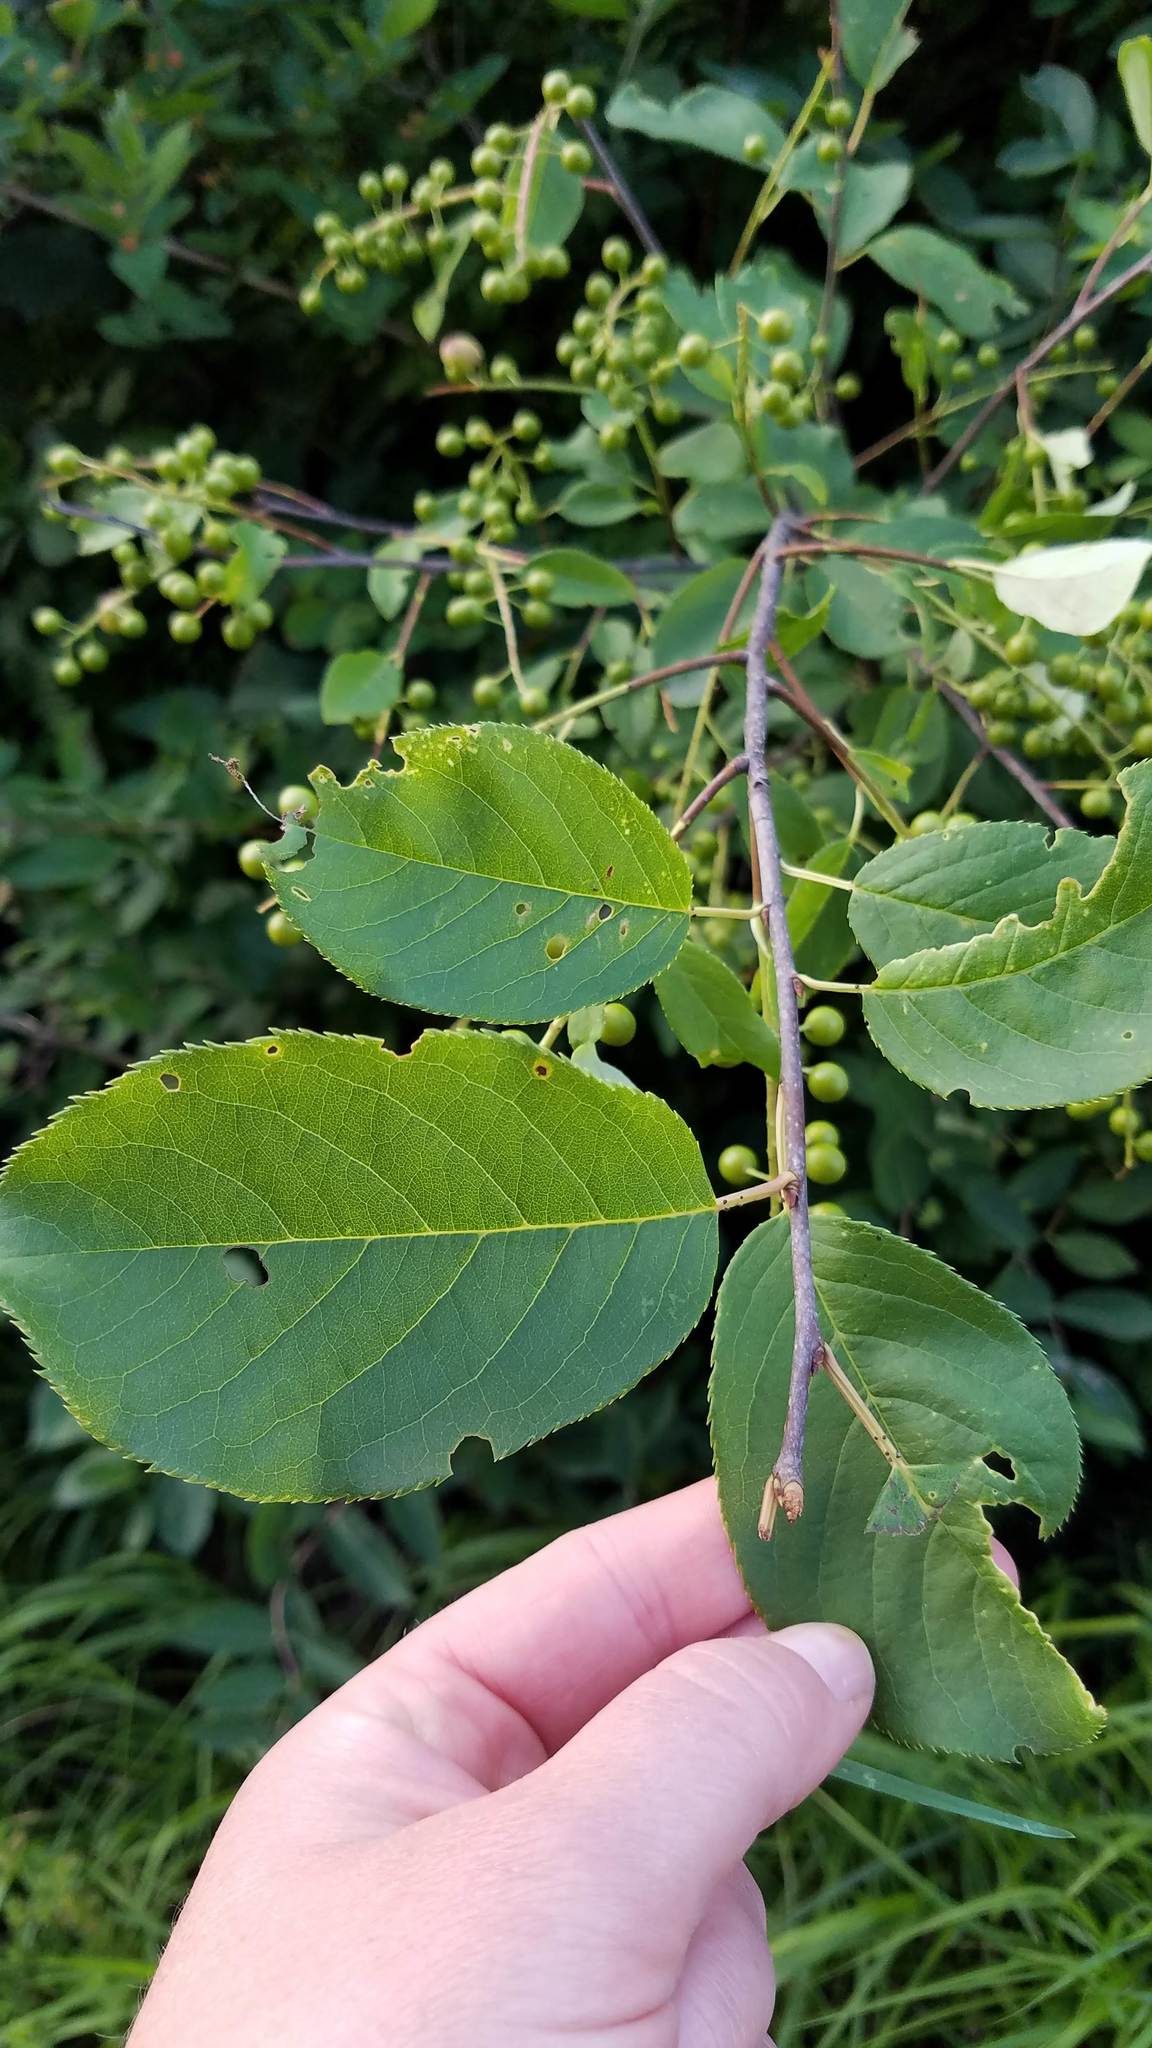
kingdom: Plantae
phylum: Tracheophyta
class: Magnoliopsida
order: Rosales
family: Rosaceae
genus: Prunus
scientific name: Prunus virginiana
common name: Chokecherry
